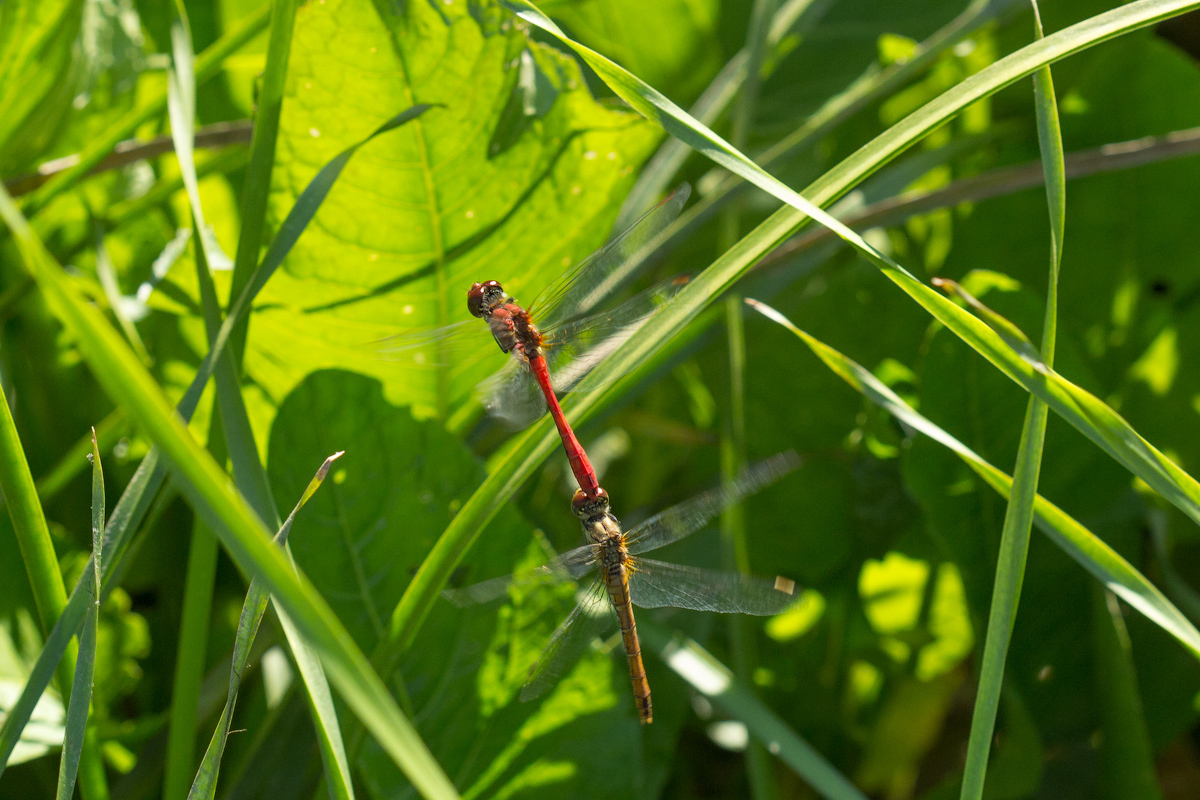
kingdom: Animalia
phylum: Arthropoda
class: Insecta
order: Odonata
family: Libellulidae
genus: Sympetrum
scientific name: Sympetrum sanguineum
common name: Ruddy darter
